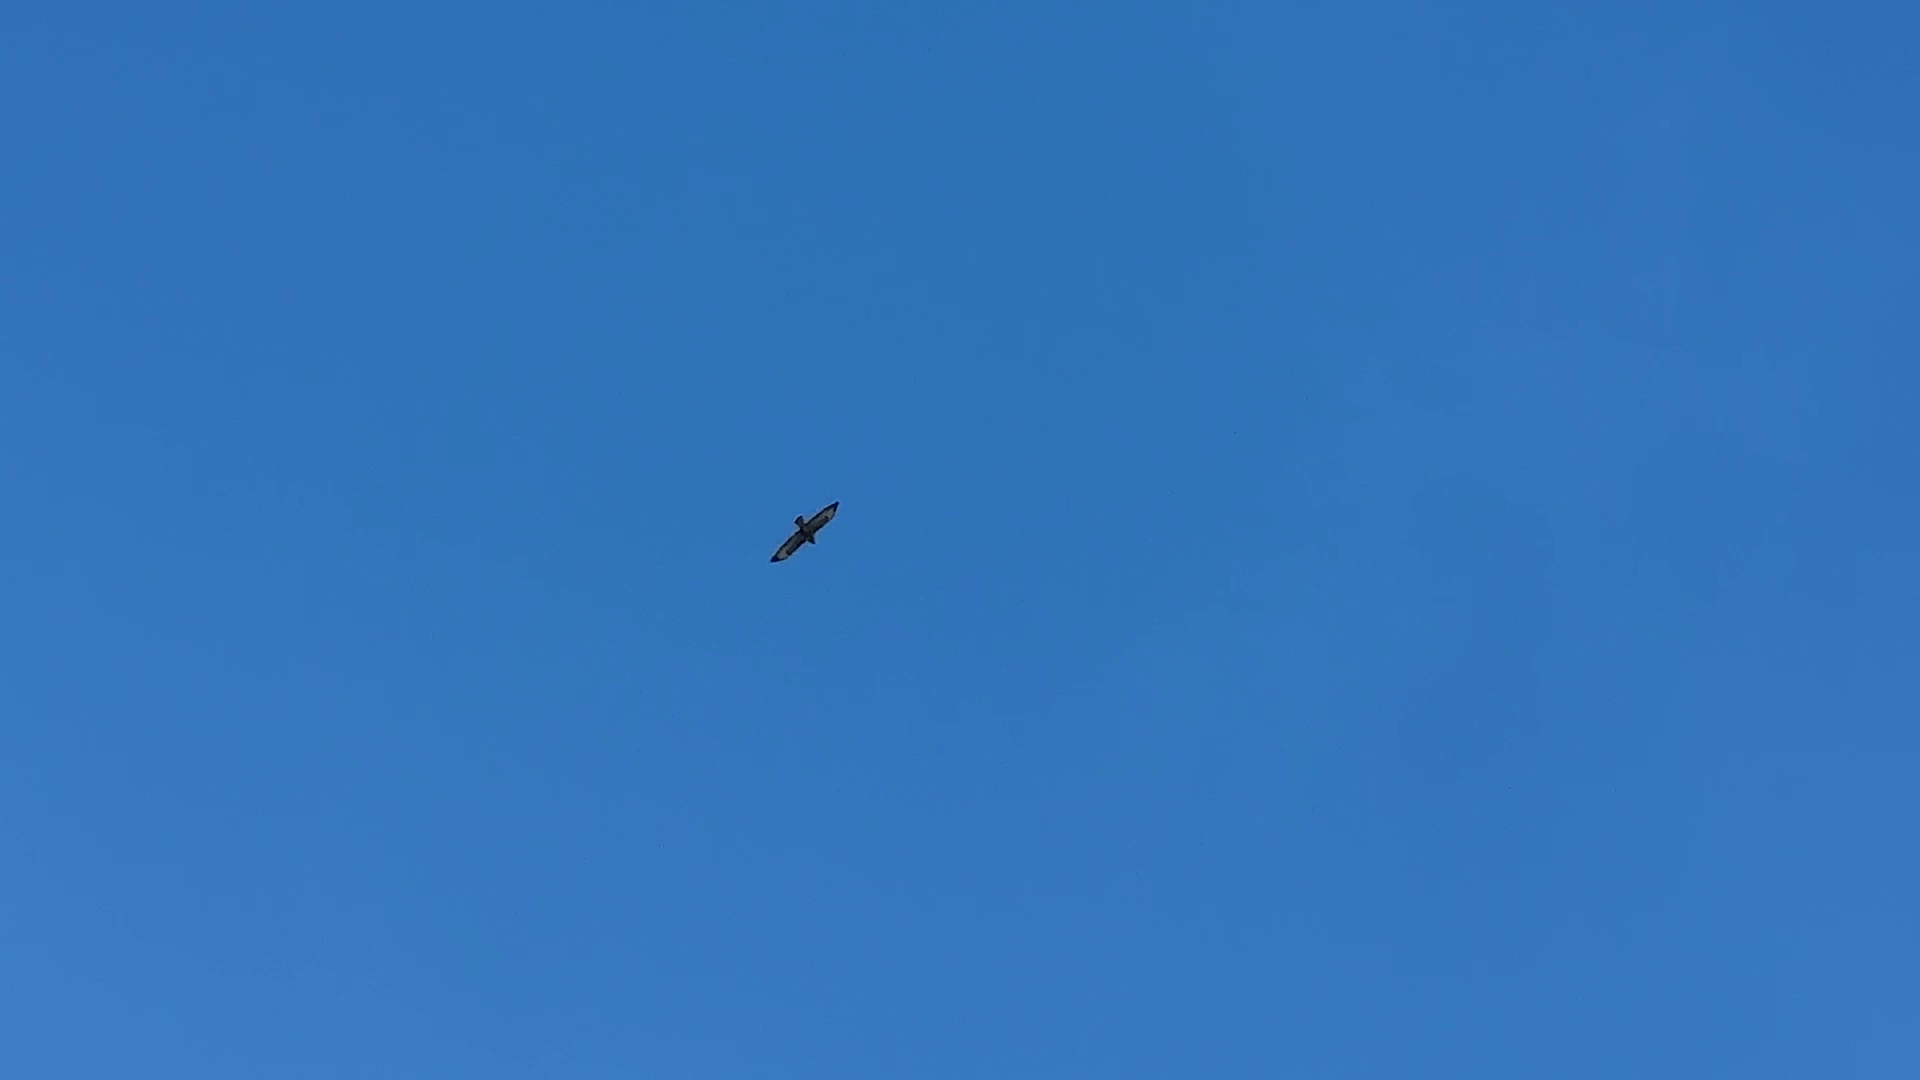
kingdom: Animalia
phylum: Chordata
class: Aves
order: Accipitriformes
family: Accipitridae
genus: Buteo
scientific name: Buteo buteo
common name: Common buzzard
